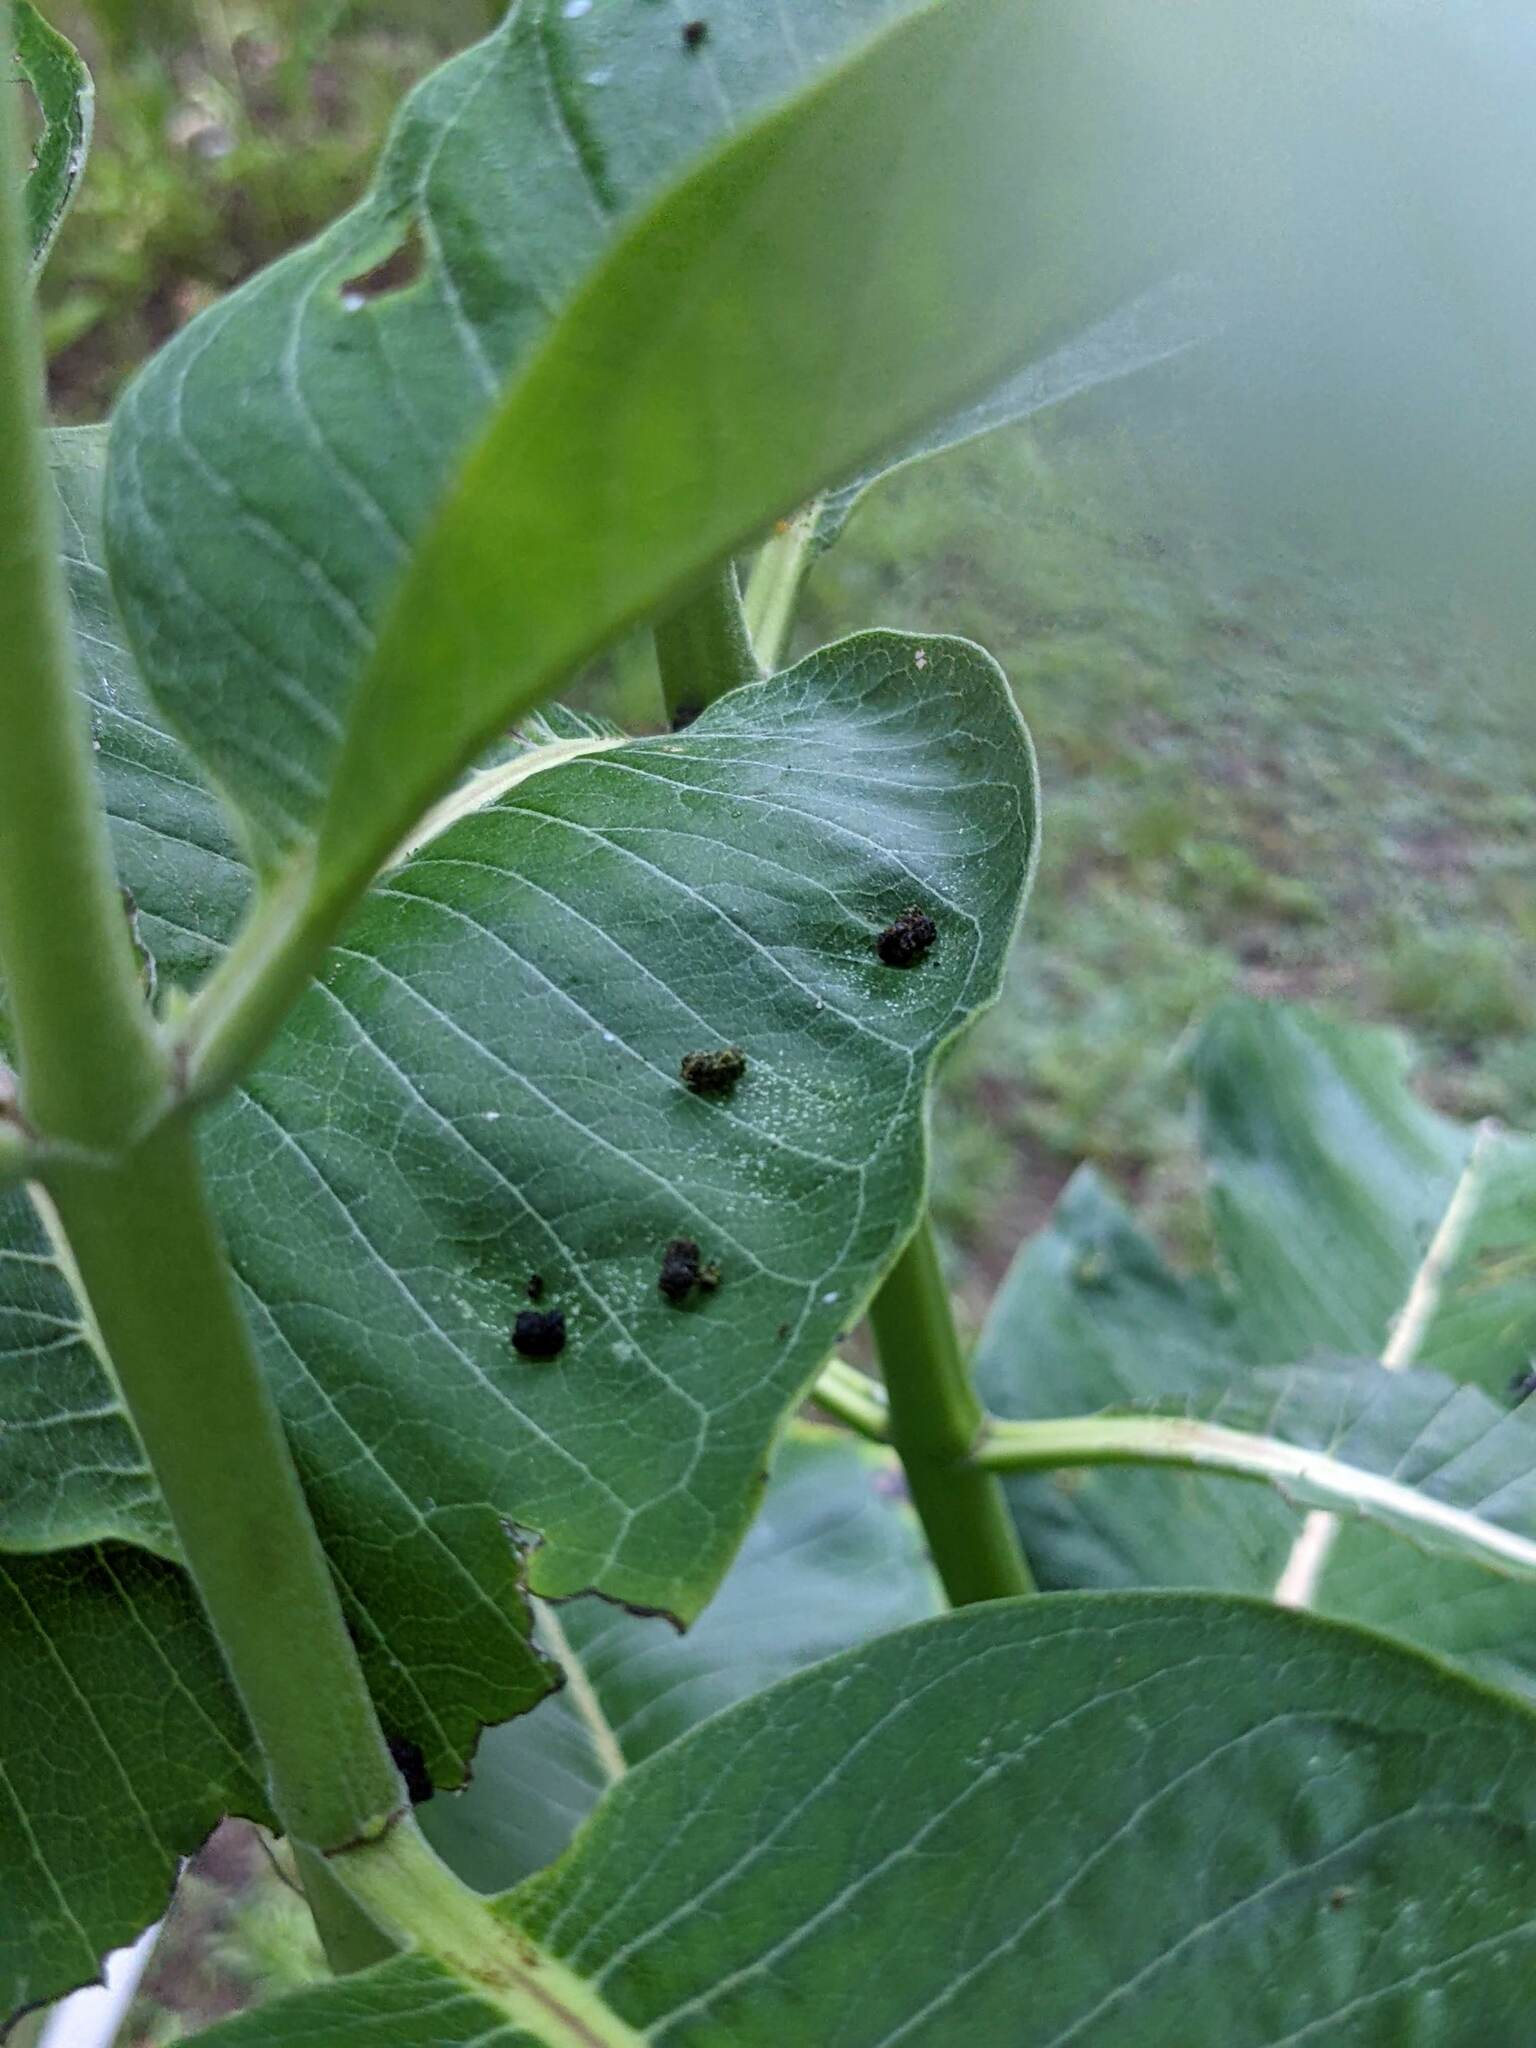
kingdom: Animalia
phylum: Arthropoda
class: Insecta
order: Lepidoptera
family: Nymphalidae
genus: Danaus
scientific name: Danaus plexippus
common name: Monarch
